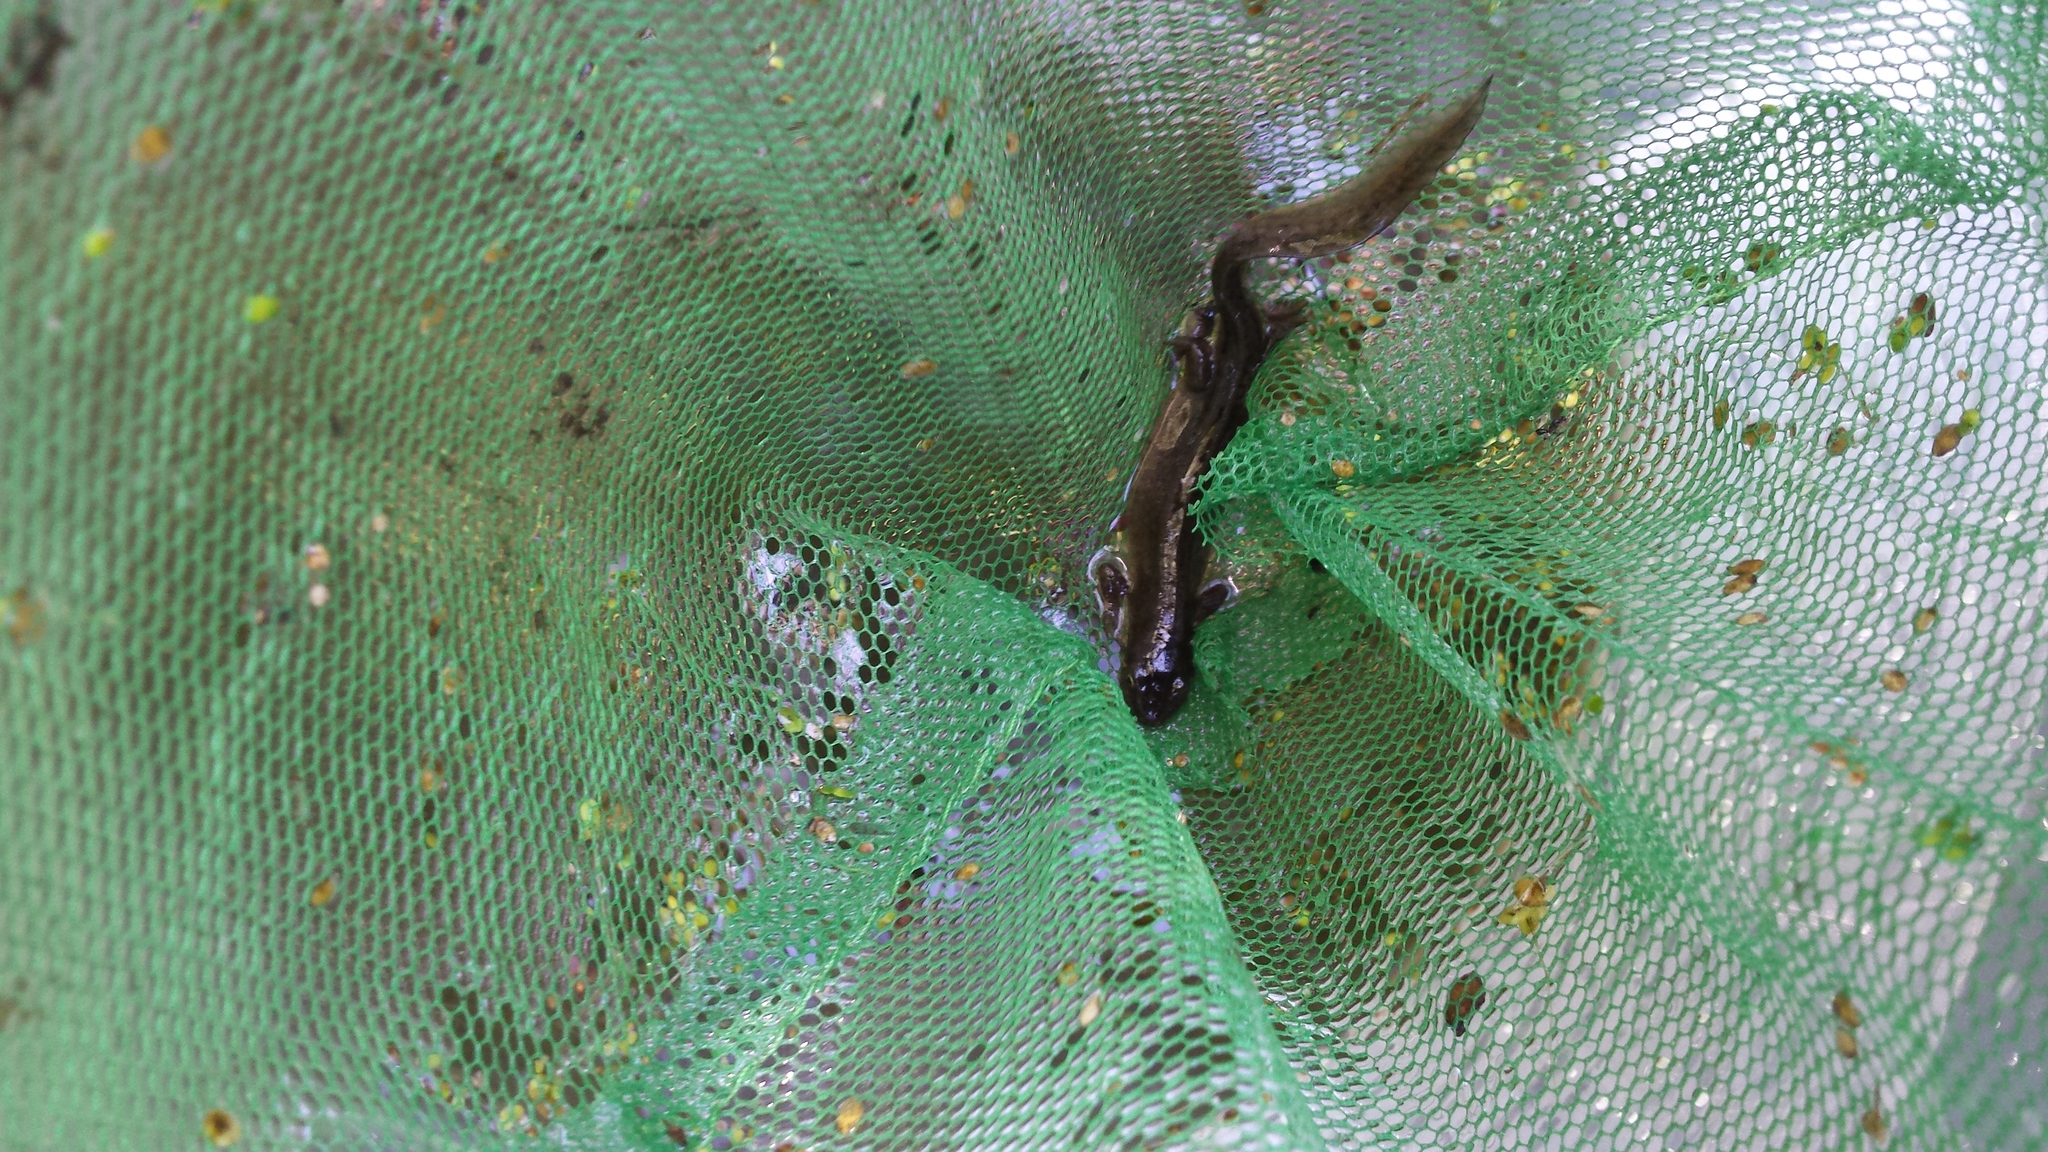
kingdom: Animalia
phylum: Chordata
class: Amphibia
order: Caudata
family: Salamandridae
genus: Lissotriton
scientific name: Lissotriton vulgaris
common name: Smooth newt
